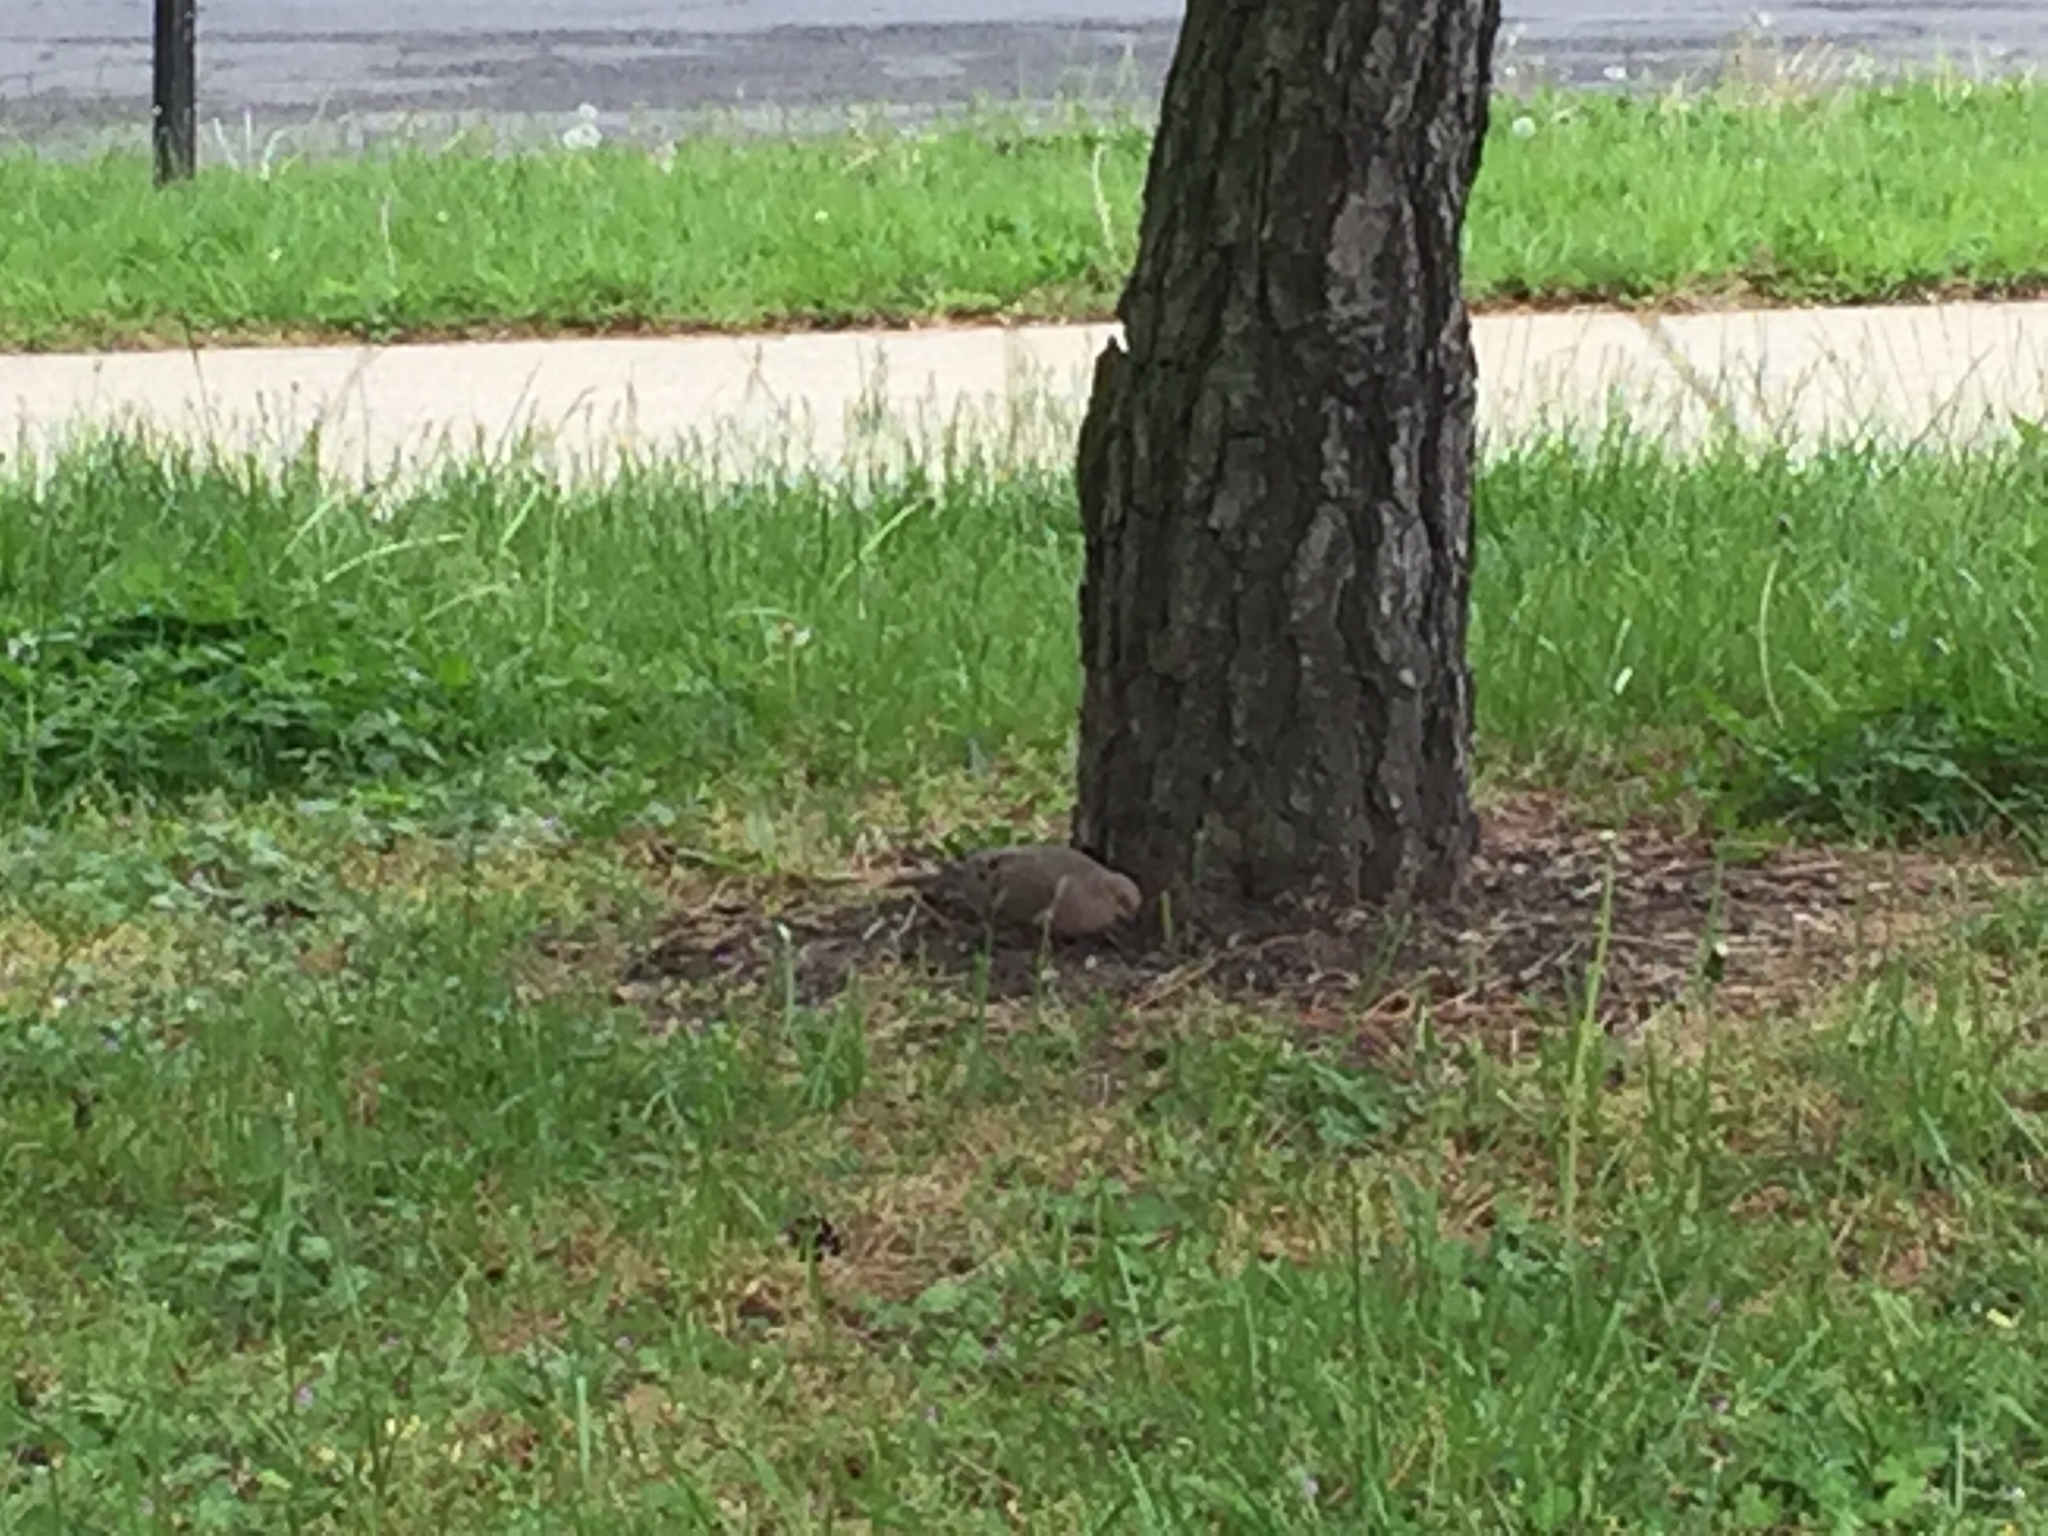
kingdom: Animalia
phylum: Chordata
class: Aves
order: Columbiformes
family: Columbidae
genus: Zenaida
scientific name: Zenaida macroura
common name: Mourning dove
